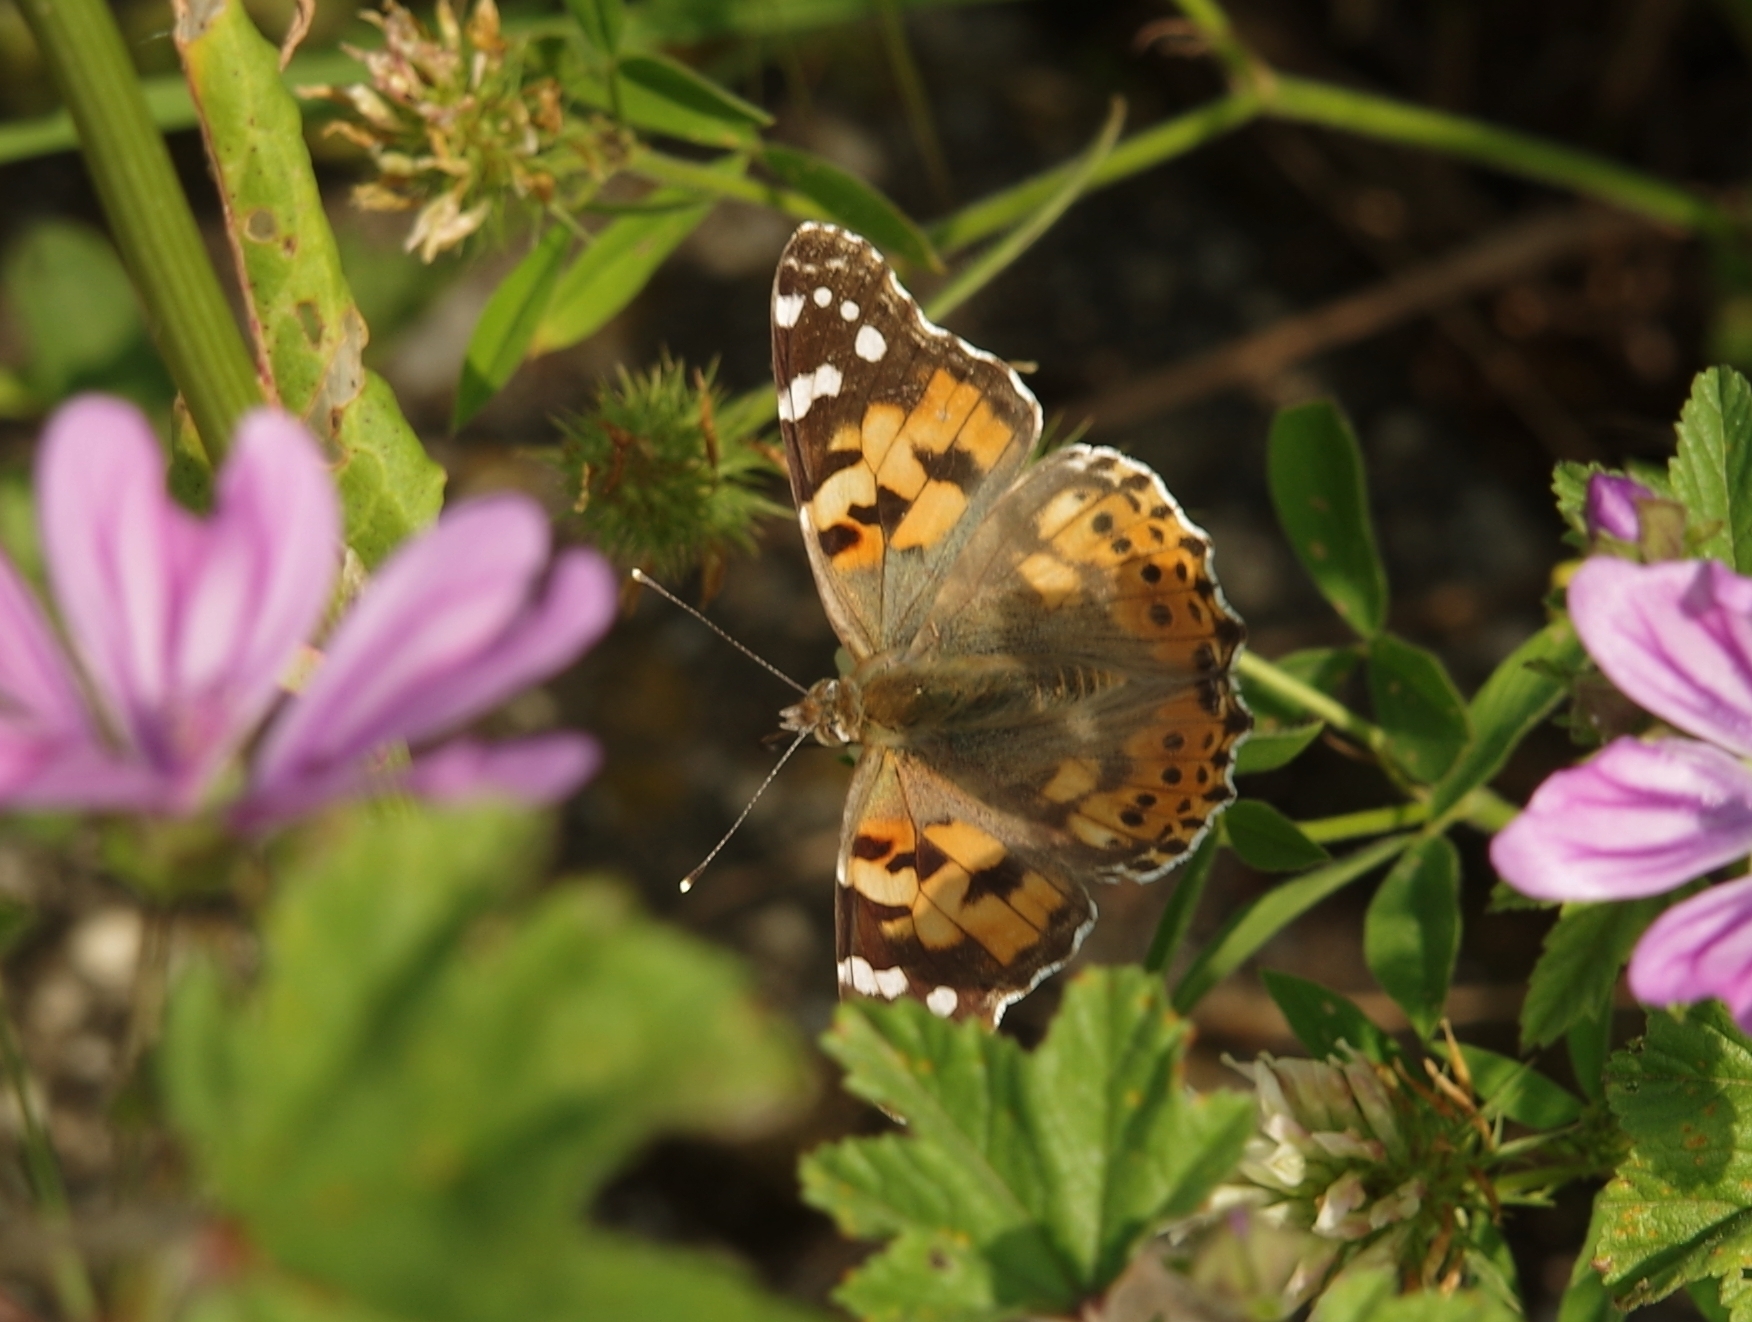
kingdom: Animalia
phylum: Arthropoda
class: Insecta
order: Lepidoptera
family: Nymphalidae
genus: Vanessa
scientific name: Vanessa cardui
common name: Painted lady
